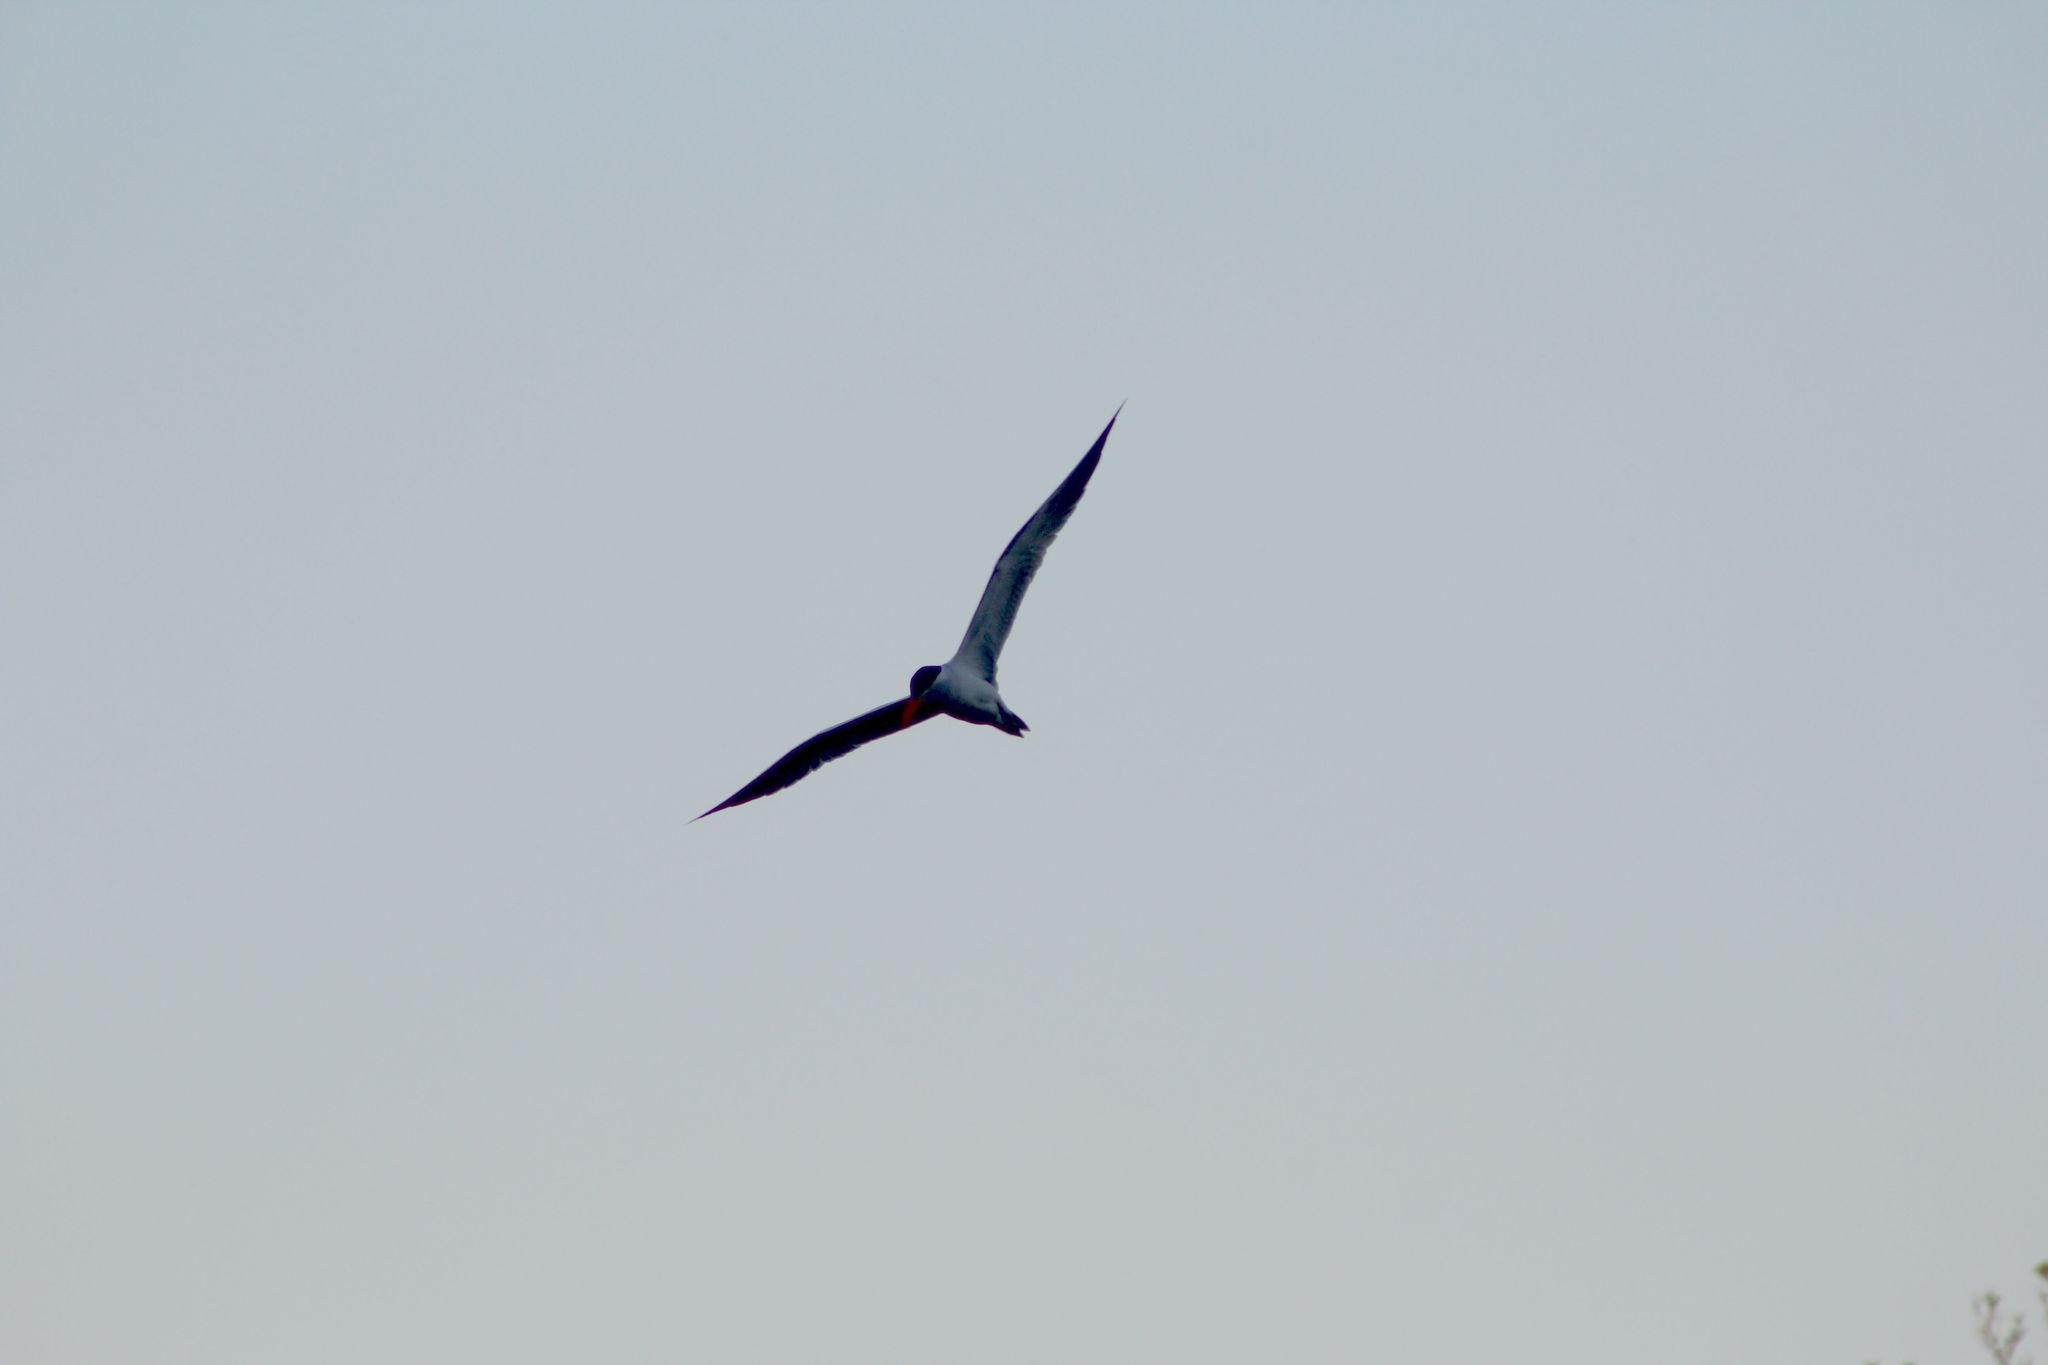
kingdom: Animalia
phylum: Chordata
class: Aves
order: Charadriiformes
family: Laridae
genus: Hydroprogne
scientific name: Hydroprogne caspia
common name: Caspian tern
